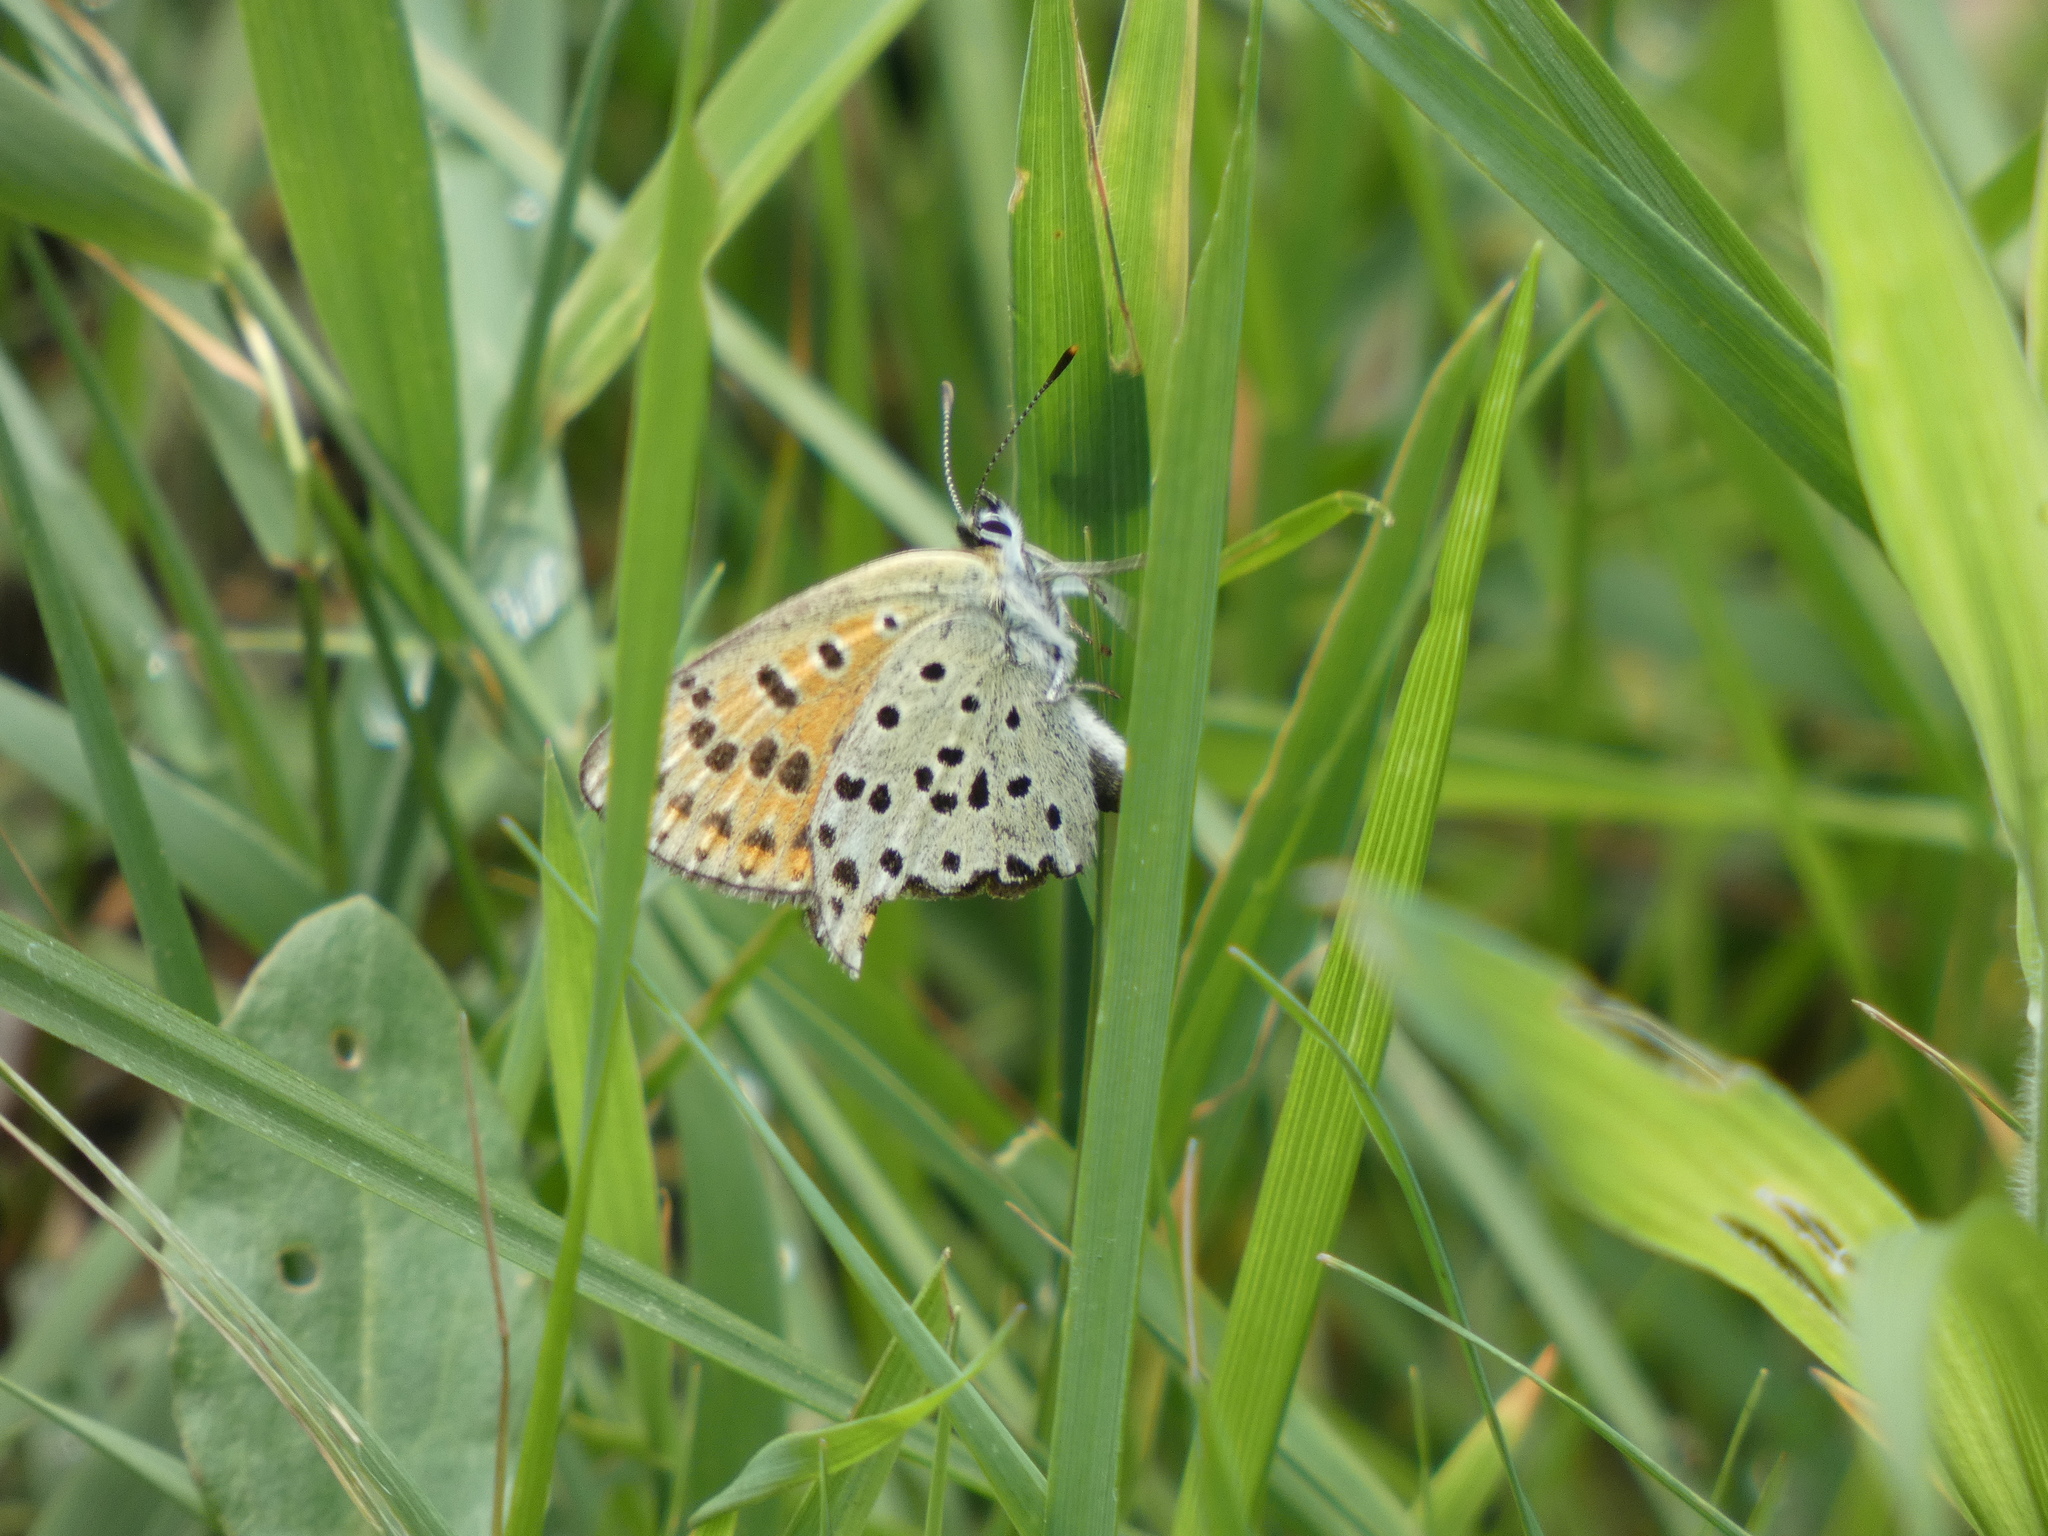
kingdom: Animalia
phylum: Arthropoda
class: Insecta
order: Lepidoptera
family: Lycaenidae
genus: Loweia
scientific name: Loweia tityrus
